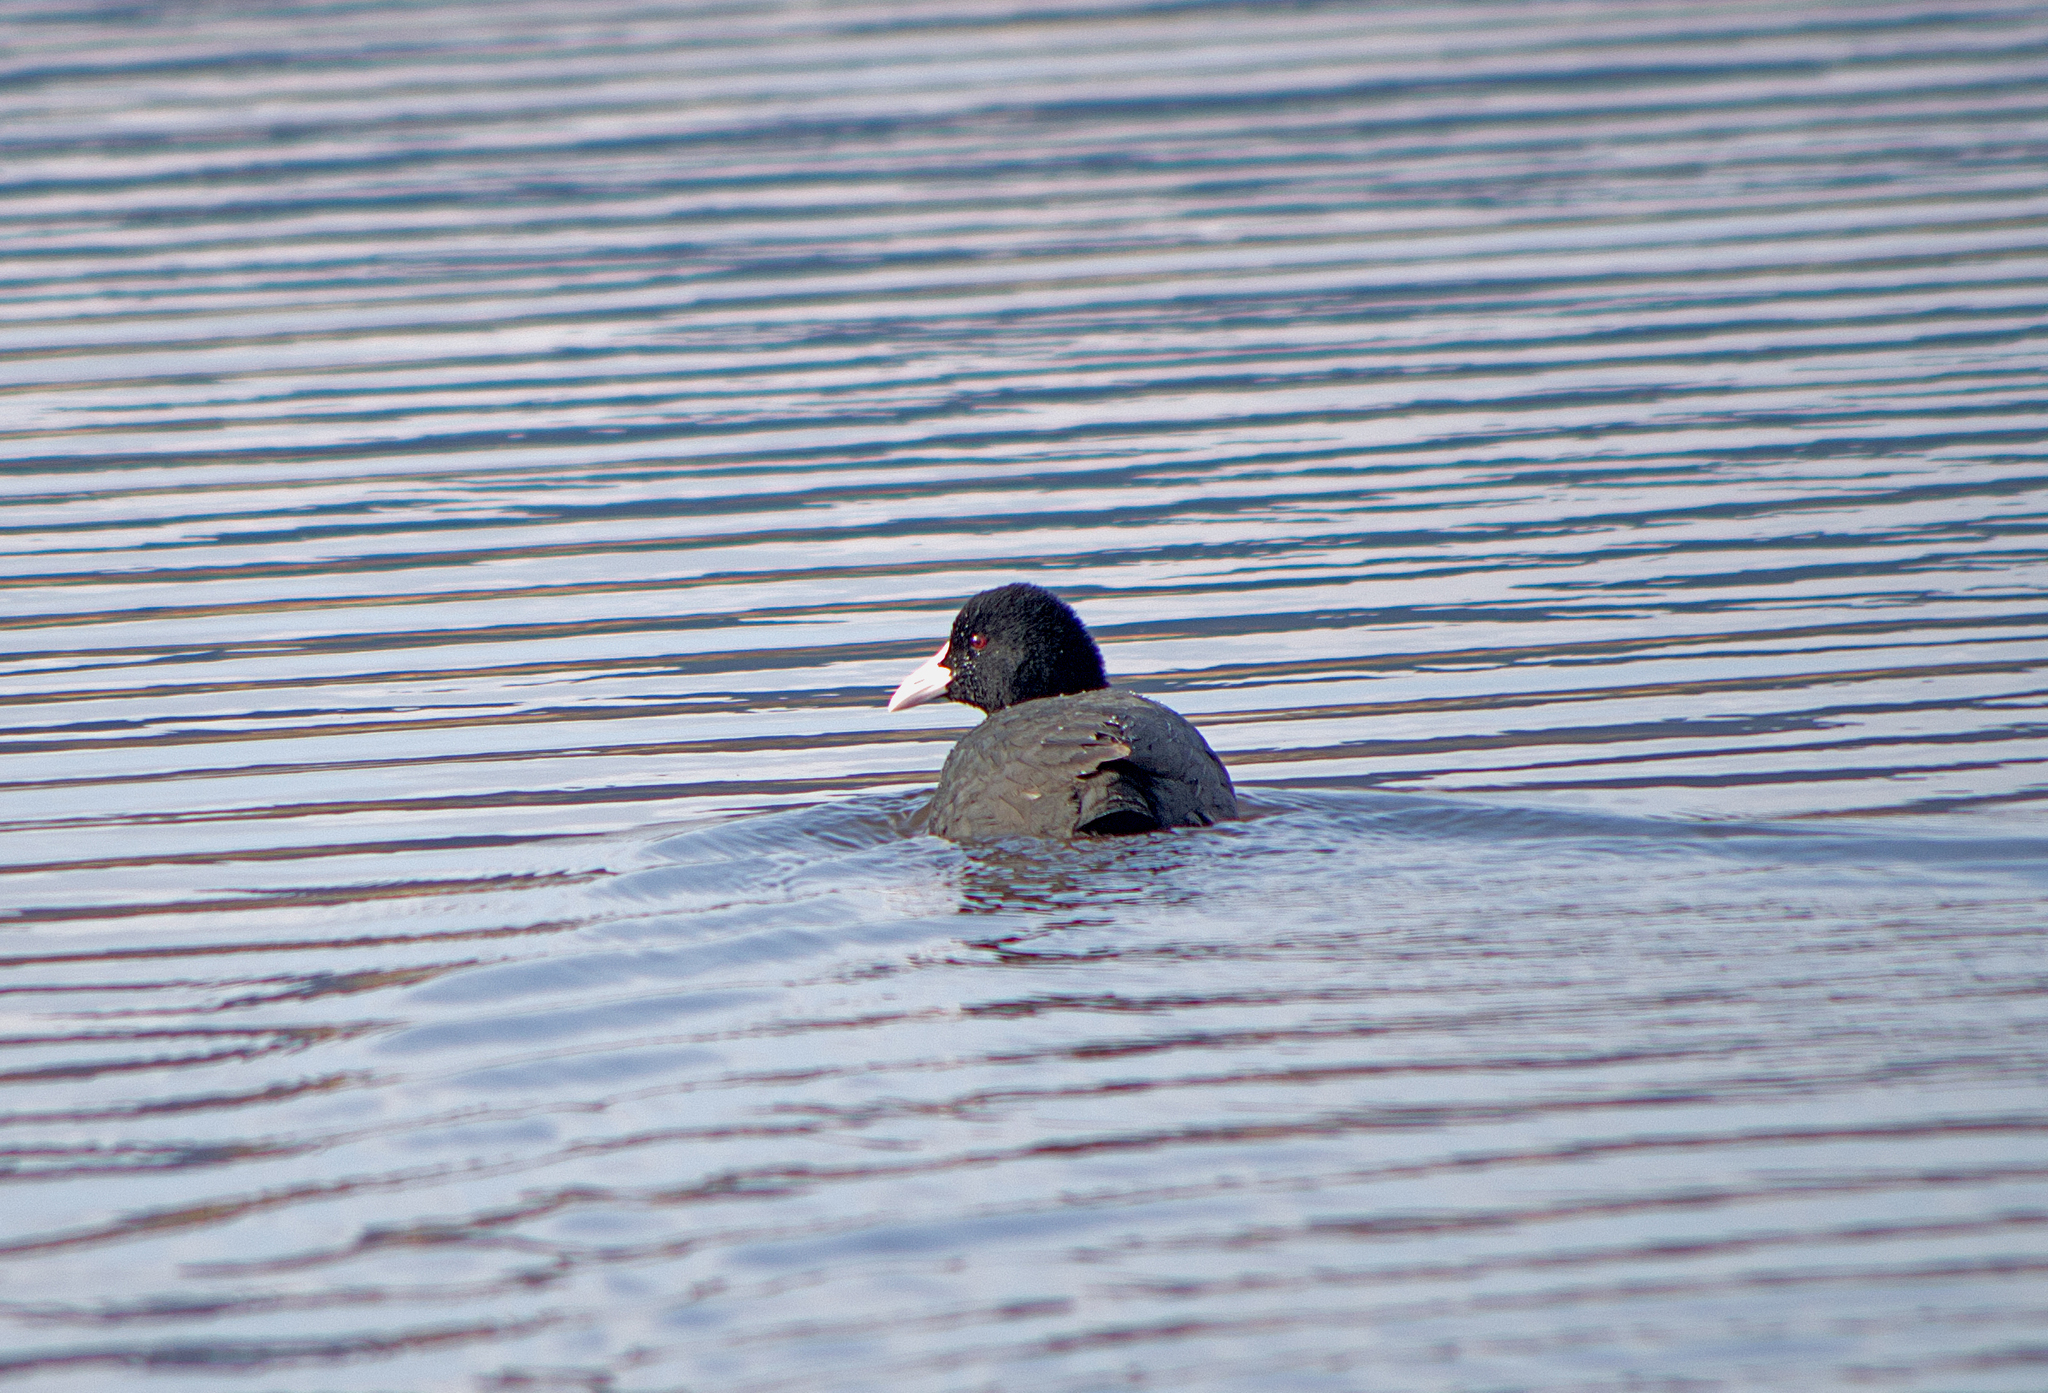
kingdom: Animalia
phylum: Chordata
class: Aves
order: Gruiformes
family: Rallidae
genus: Fulica
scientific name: Fulica atra
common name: Eurasian coot
